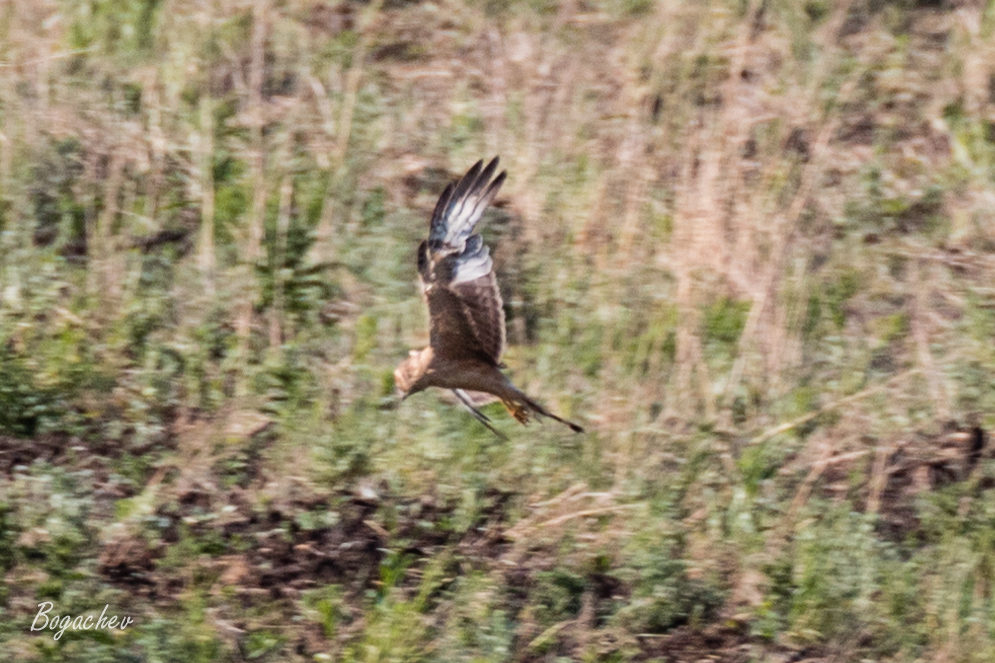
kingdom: Animalia
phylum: Chordata
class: Aves
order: Accipitriformes
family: Accipitridae
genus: Circus
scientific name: Circus macrourus
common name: Pallid harrier
